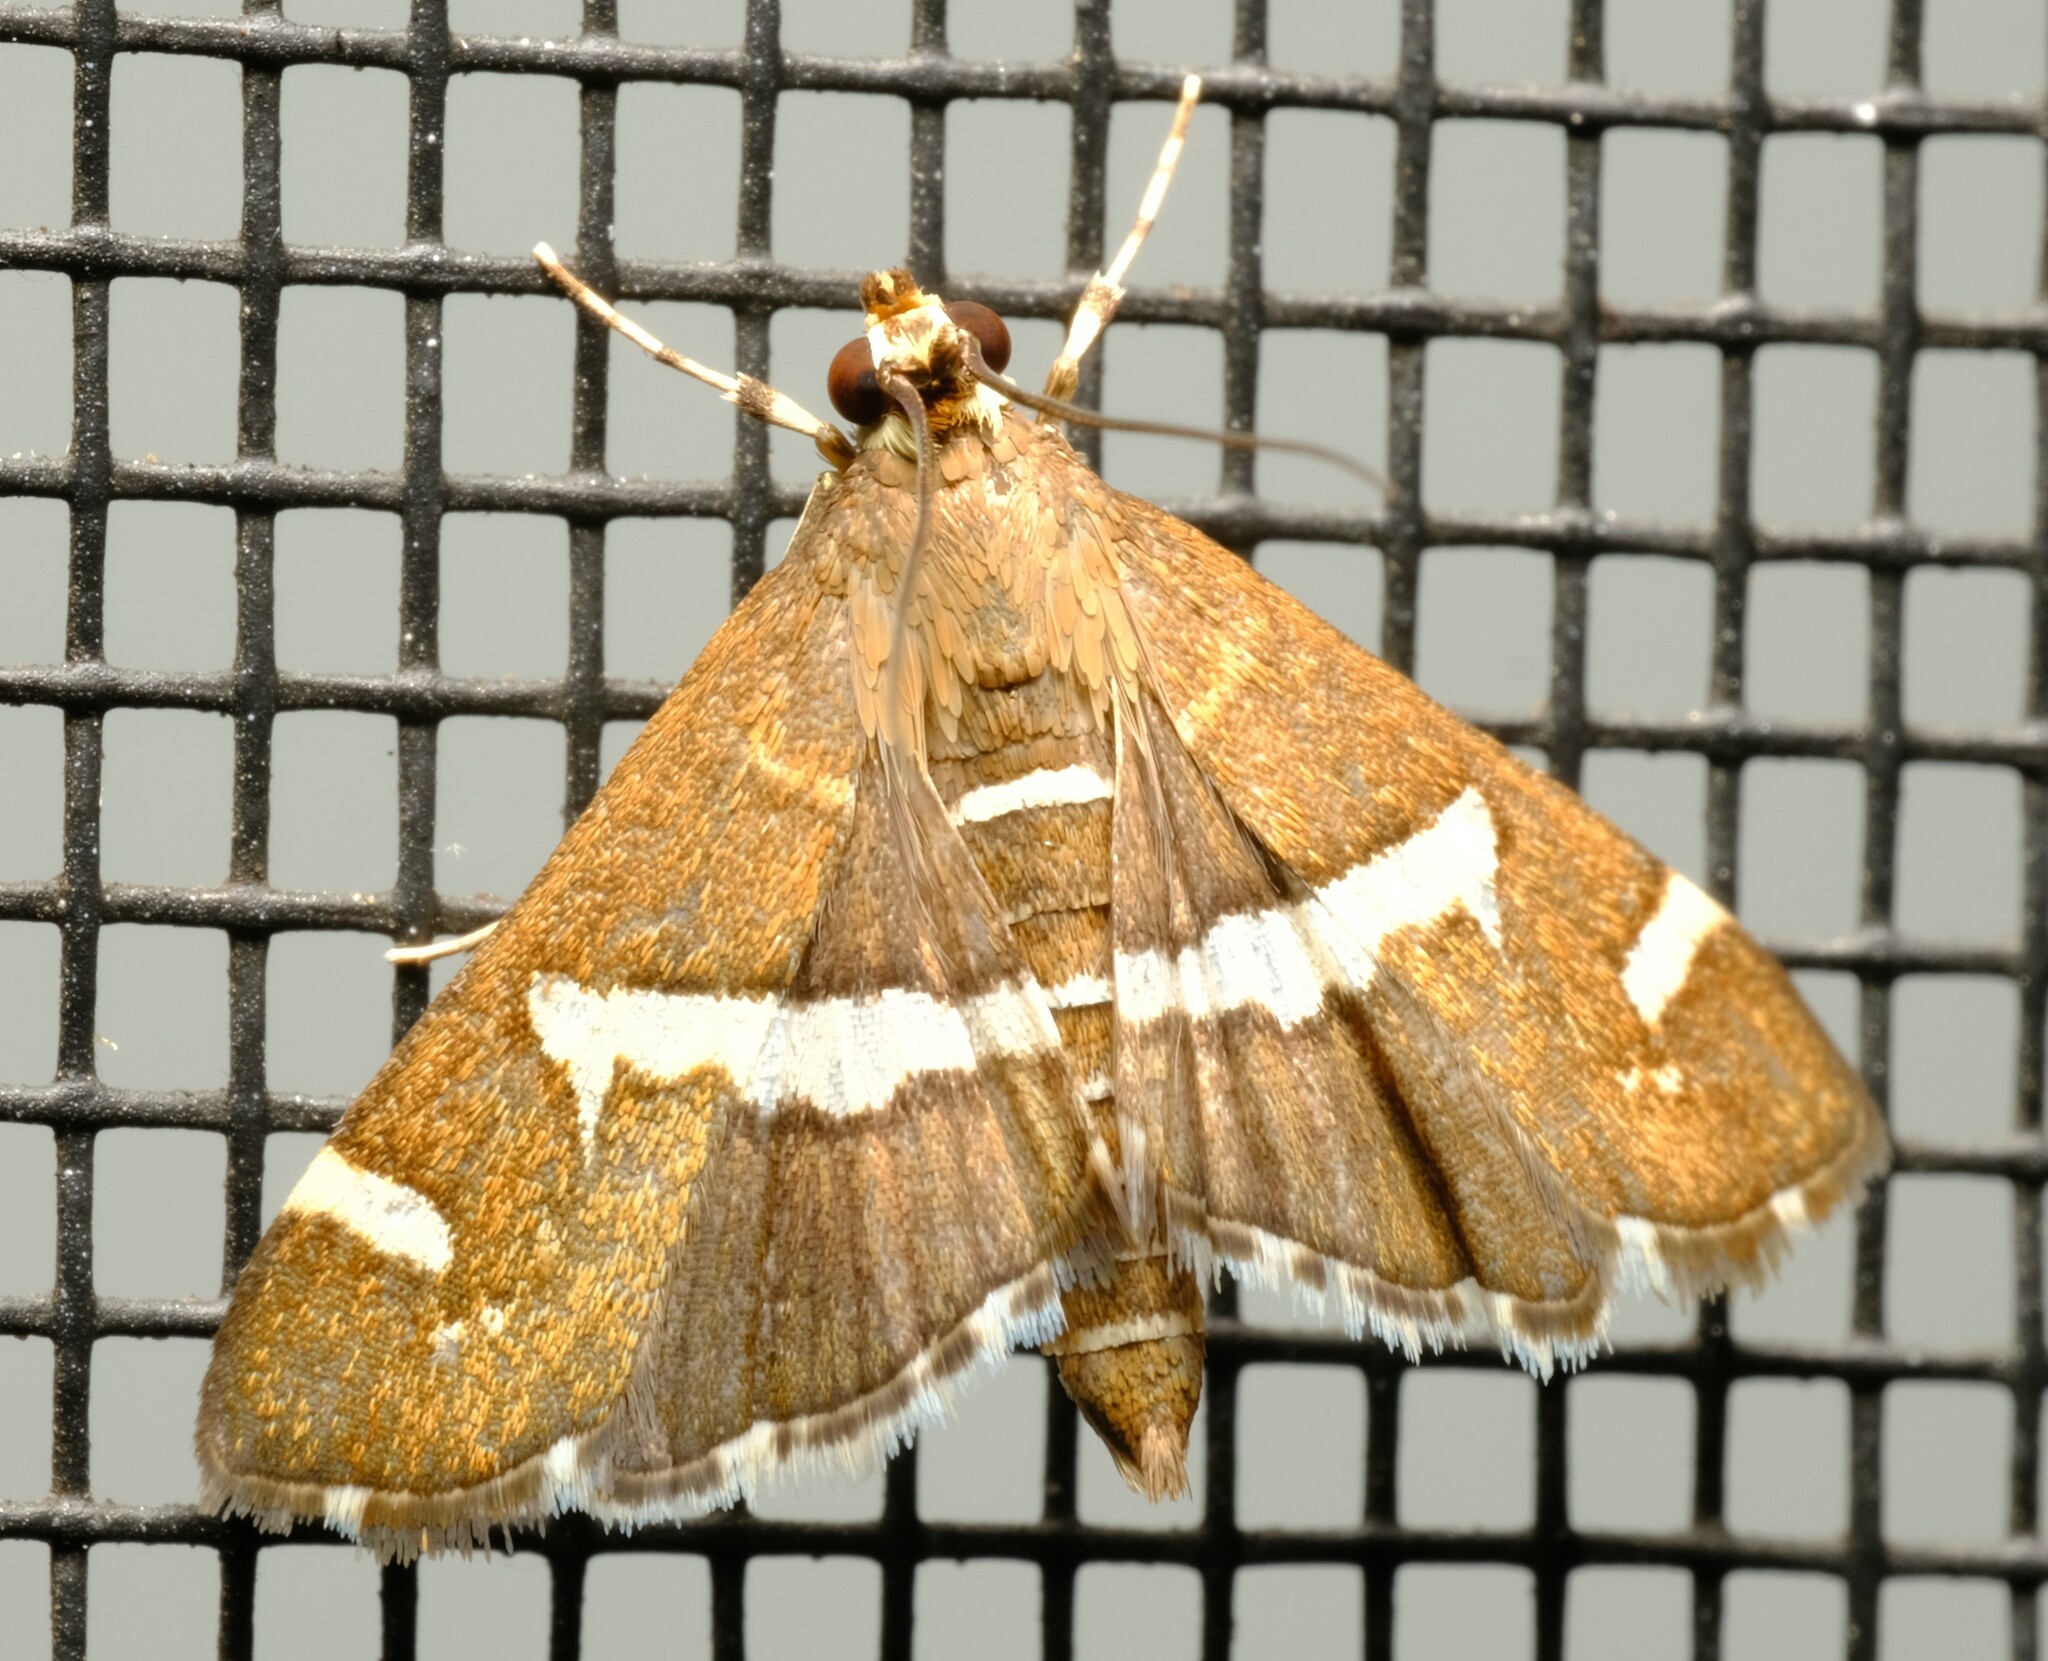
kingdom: Animalia
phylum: Arthropoda
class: Insecta
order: Lepidoptera
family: Crambidae
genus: Spoladea
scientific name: Spoladea recurvalis
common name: Beet webworm moth
